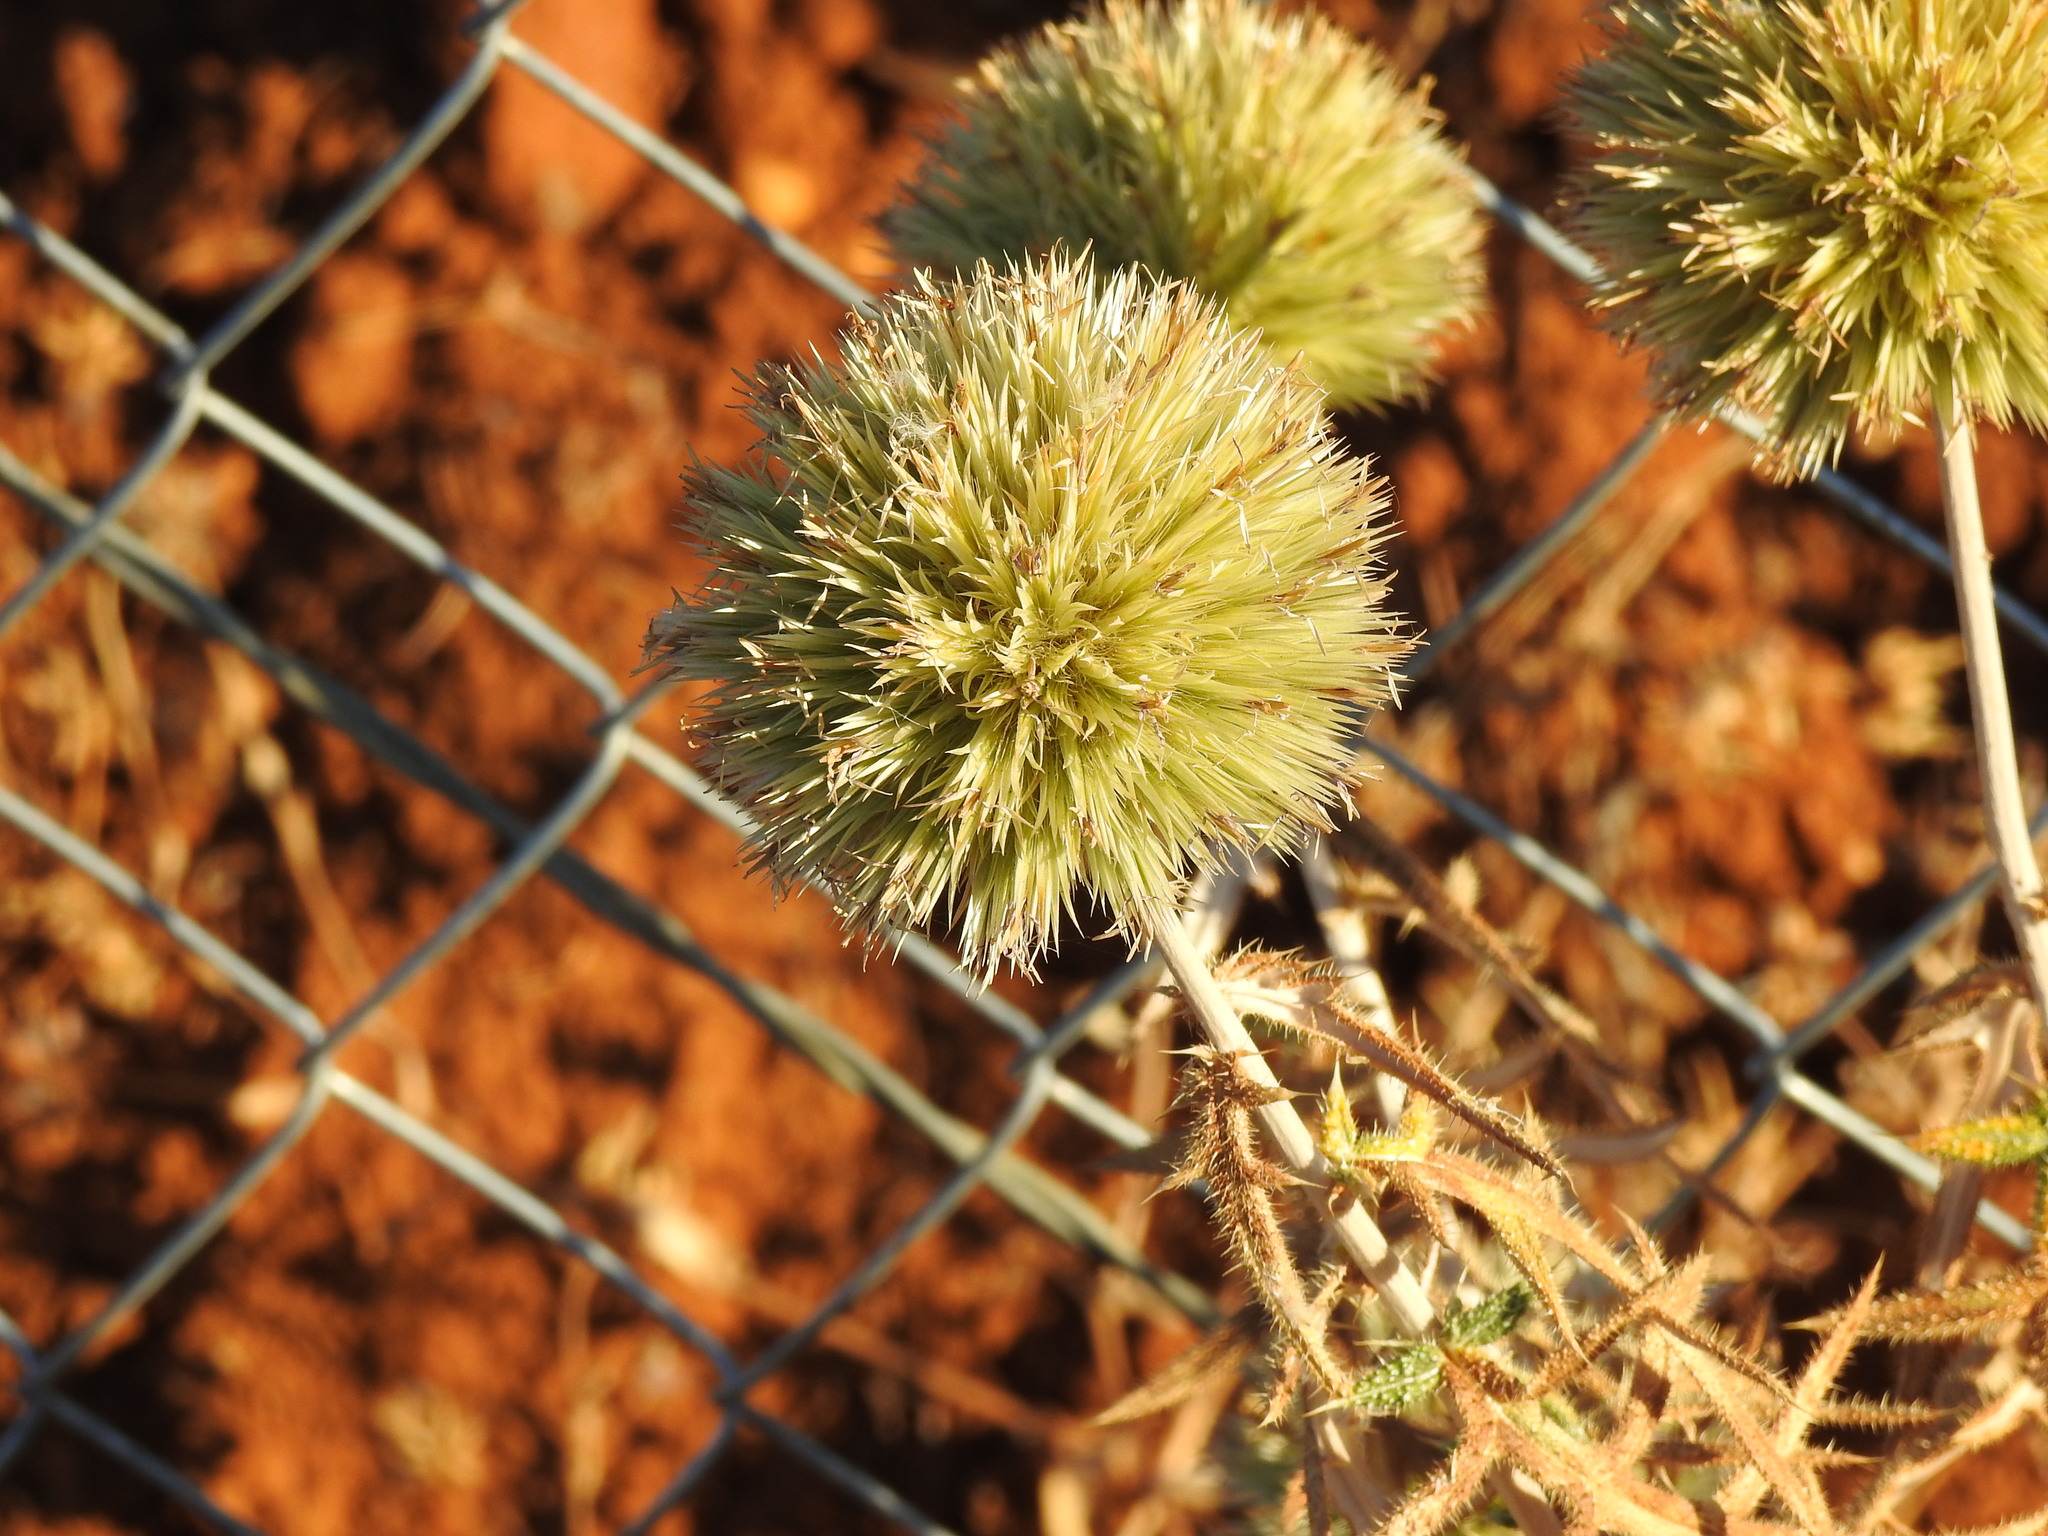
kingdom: Plantae
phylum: Tracheophyta
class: Magnoliopsida
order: Asterales
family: Asteraceae
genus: Echinops
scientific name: Echinops strigosus
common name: Rough-leaf globe thistle
